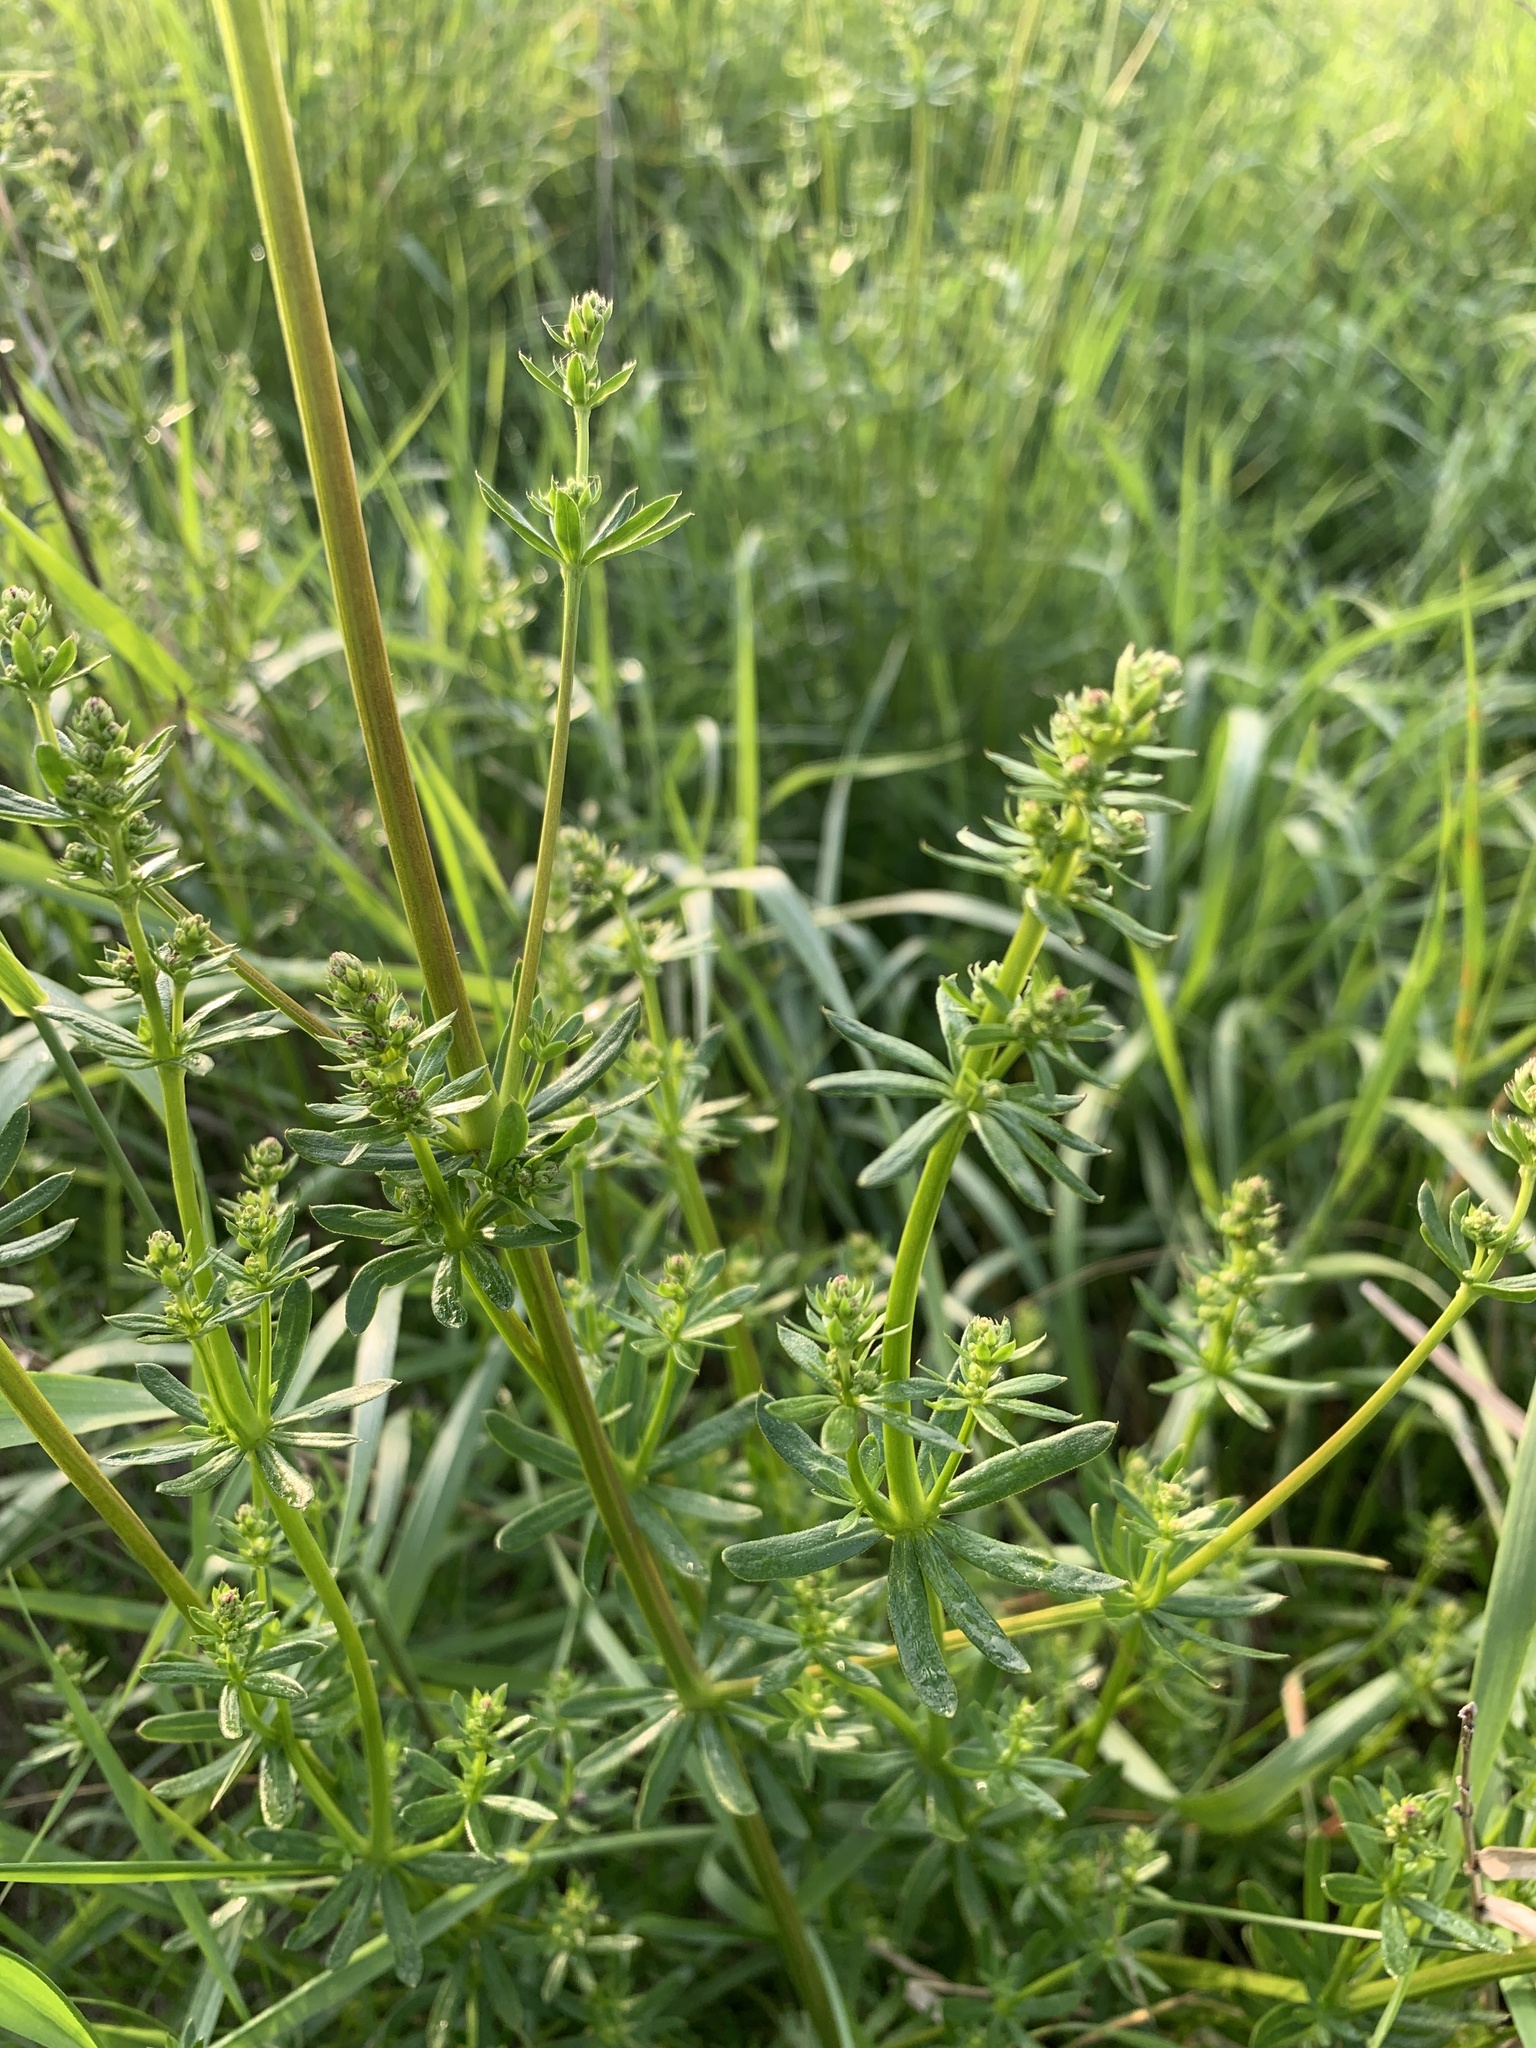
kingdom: Plantae
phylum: Tracheophyta
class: Magnoliopsida
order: Gentianales
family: Rubiaceae
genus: Galium
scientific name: Galium album
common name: White bedstraw
